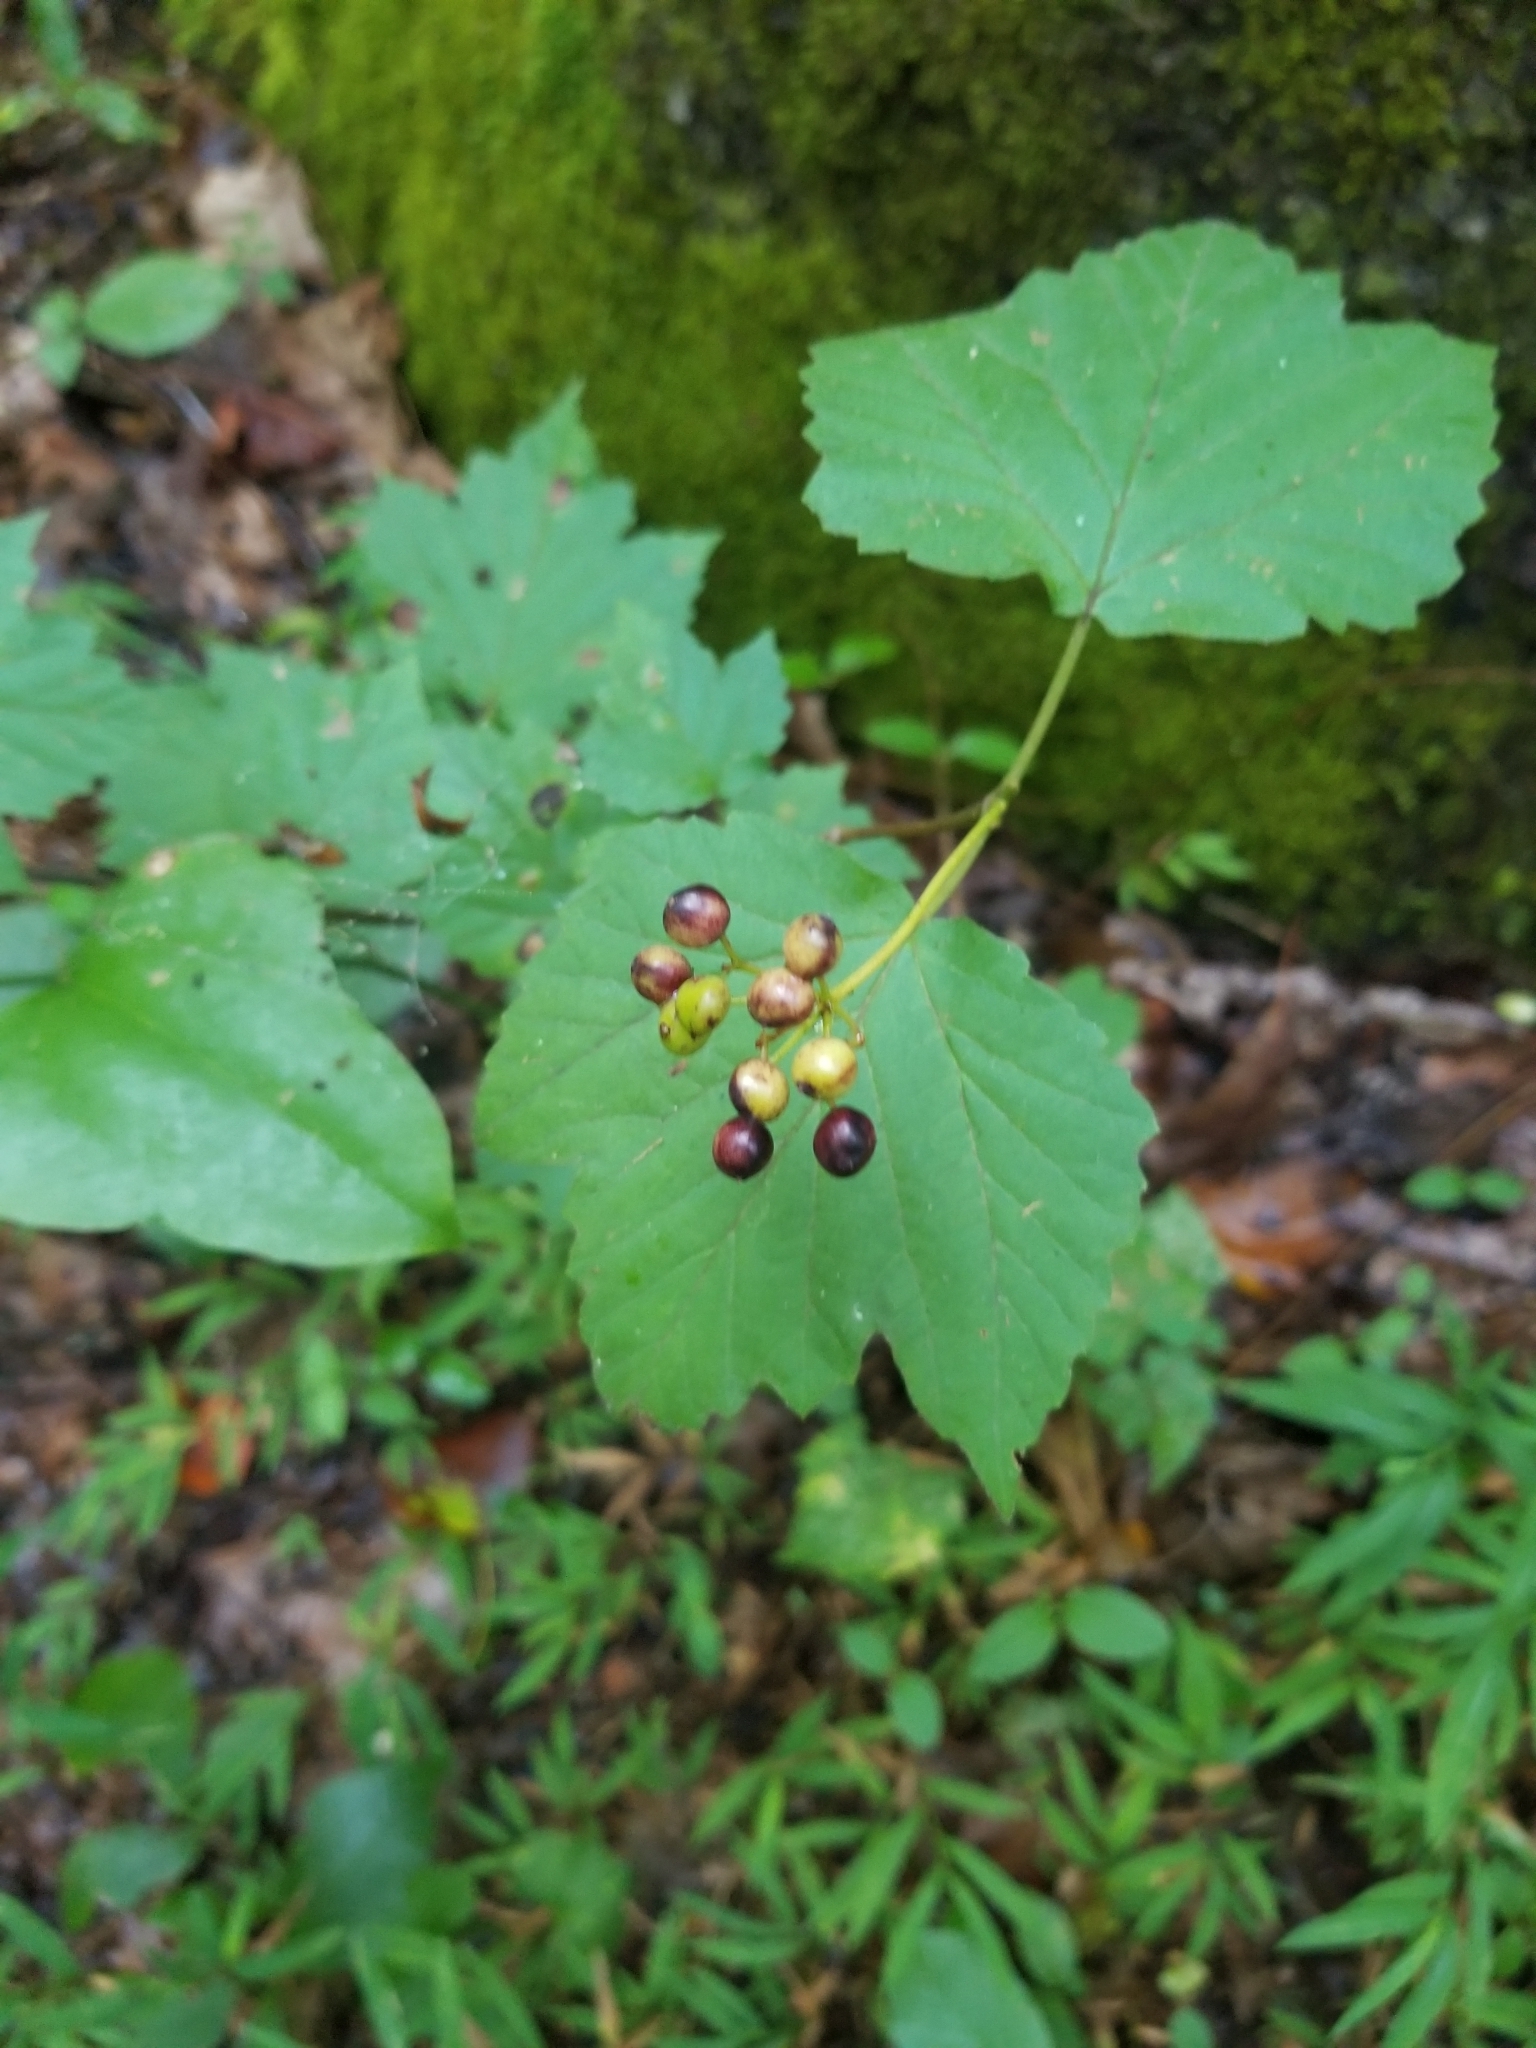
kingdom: Plantae
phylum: Tracheophyta
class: Magnoliopsida
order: Dipsacales
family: Viburnaceae
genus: Viburnum
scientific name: Viburnum acerifolium
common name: Dockmackie
